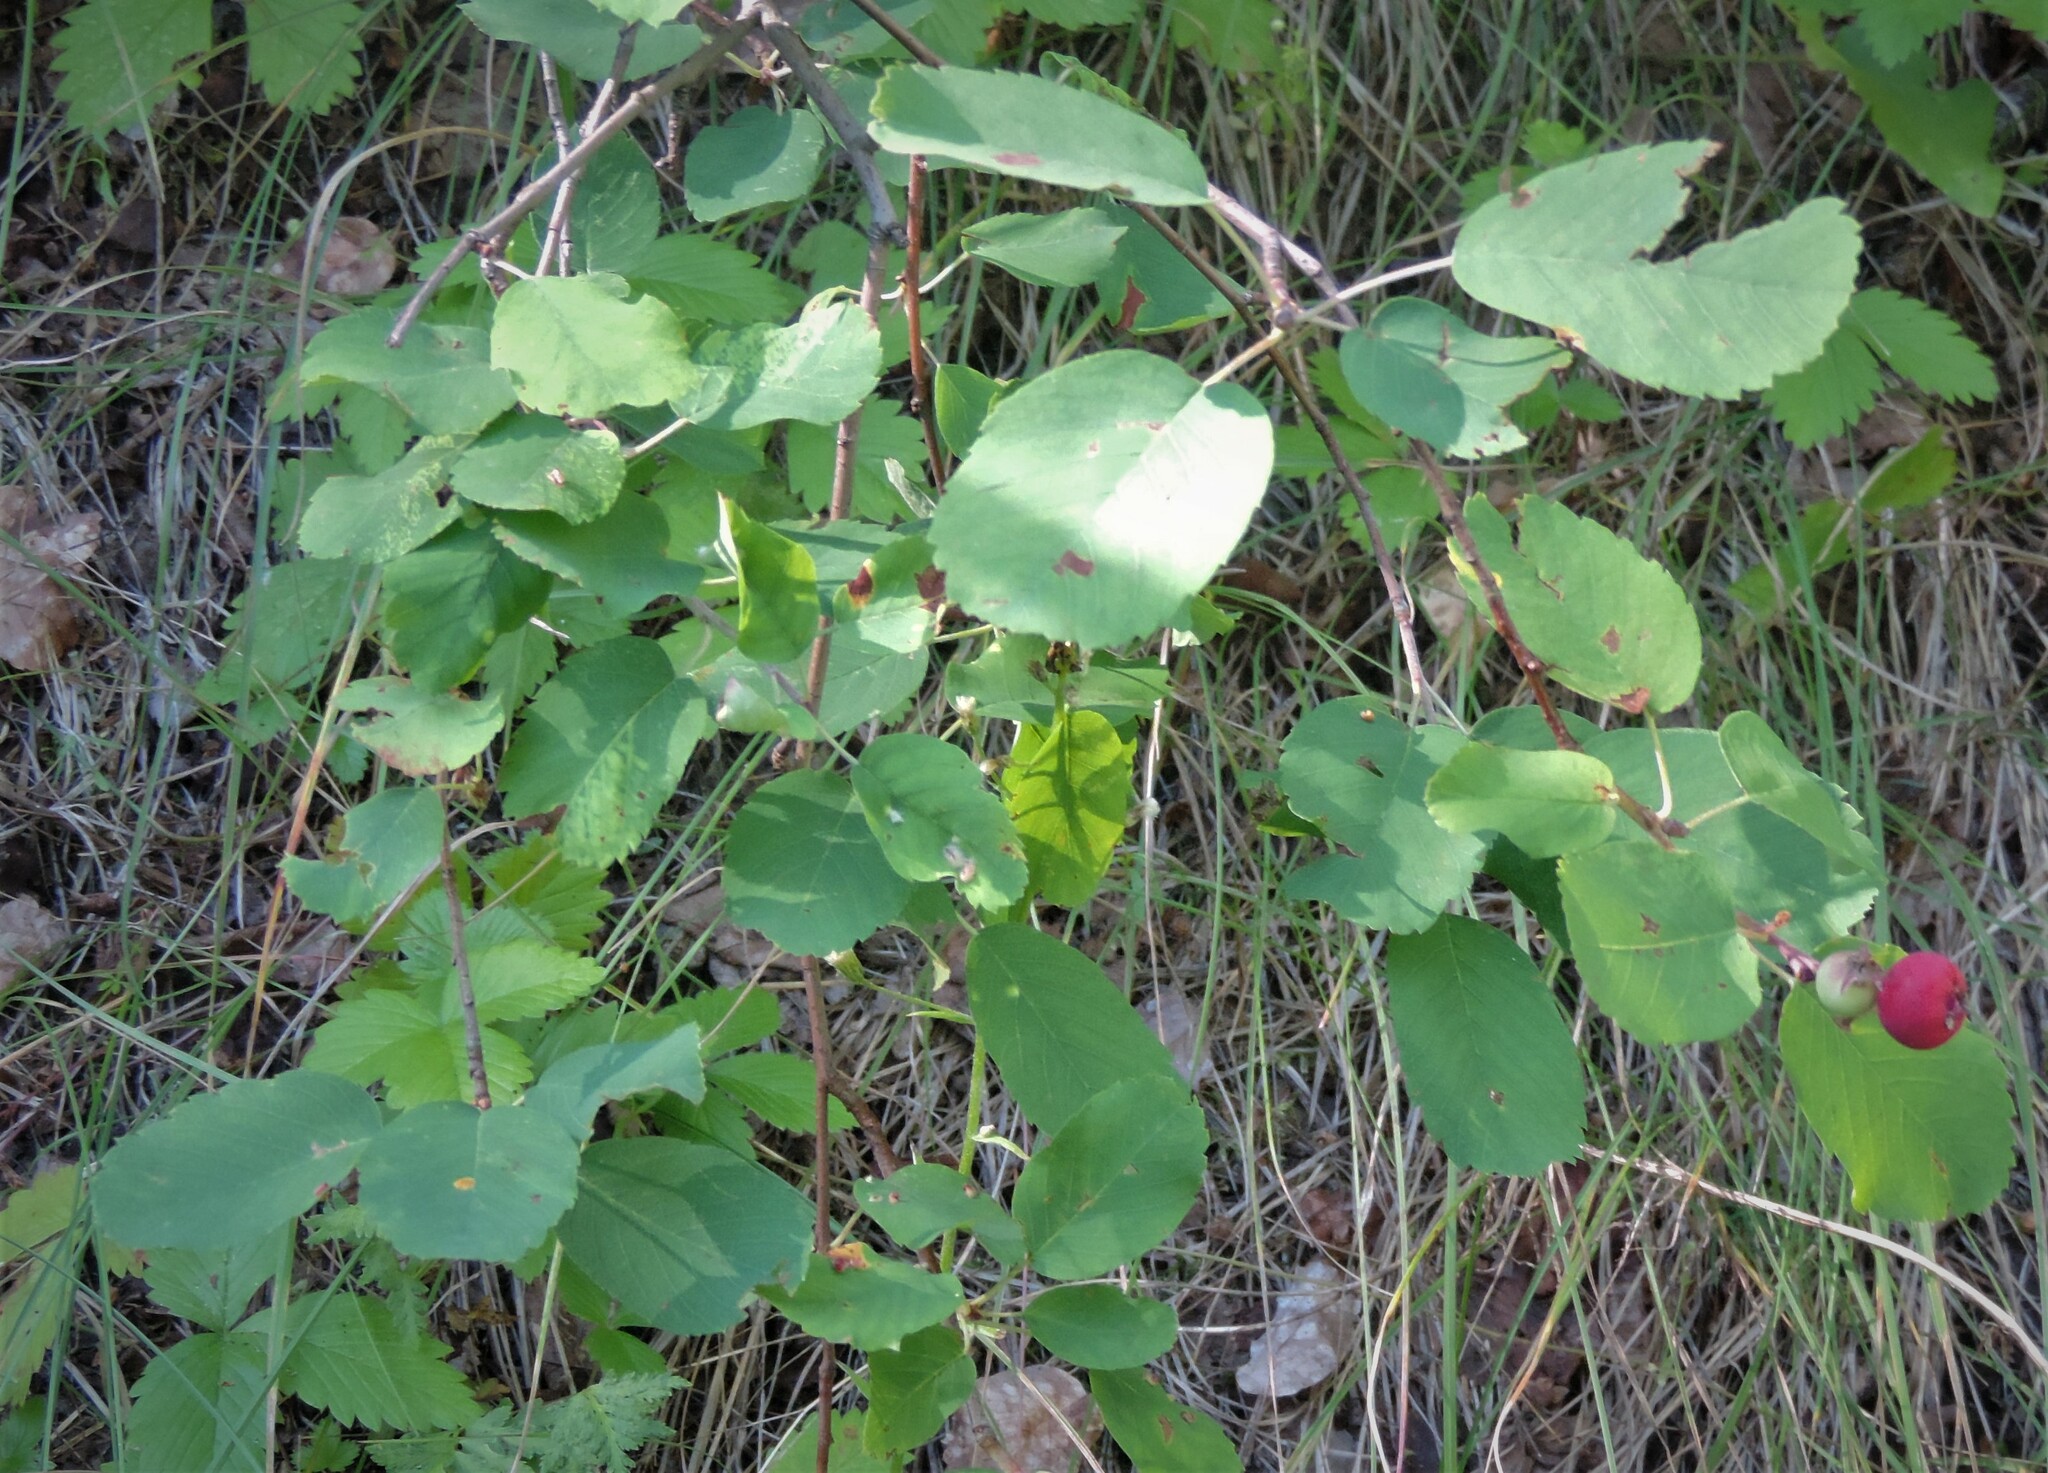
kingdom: Plantae
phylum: Tracheophyta
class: Magnoliopsida
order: Rosales
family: Rosaceae
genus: Amelanchier
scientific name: Amelanchier alnifolia
